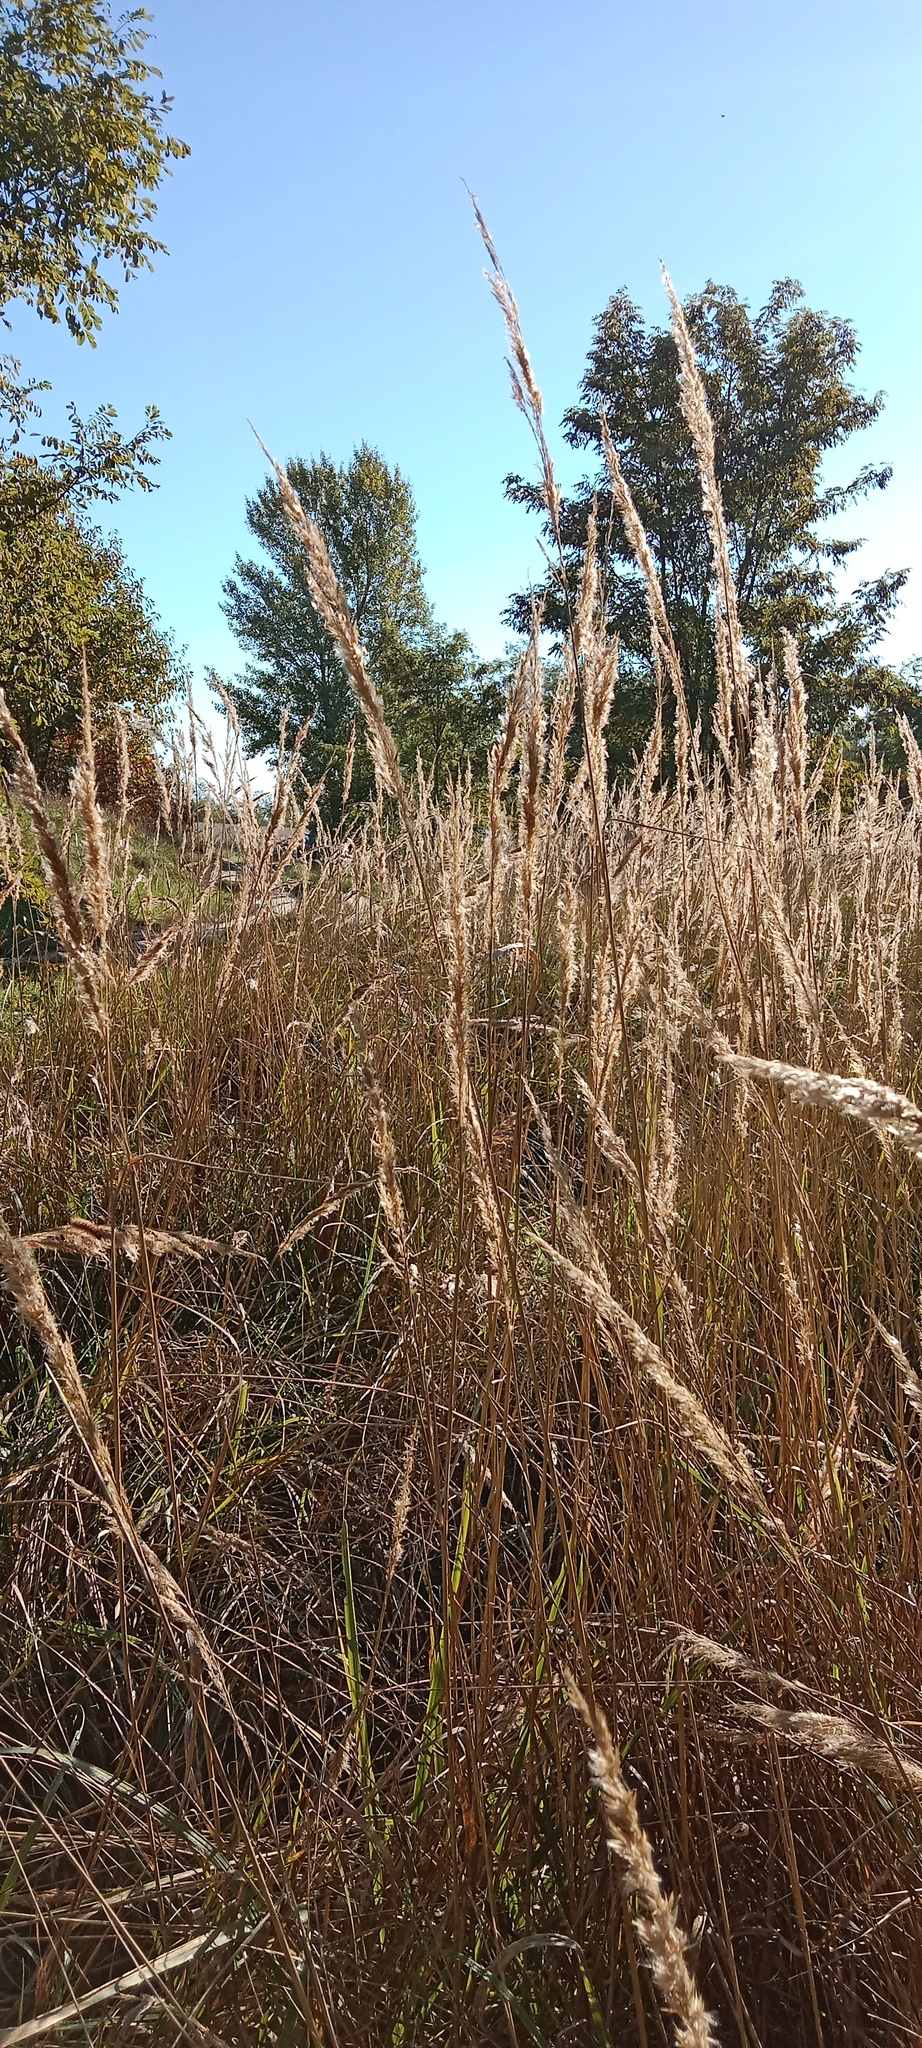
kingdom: Plantae
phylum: Tracheophyta
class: Liliopsida
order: Poales
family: Poaceae
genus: Calamagrostis
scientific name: Calamagrostis epigejos
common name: Wood small-reed
